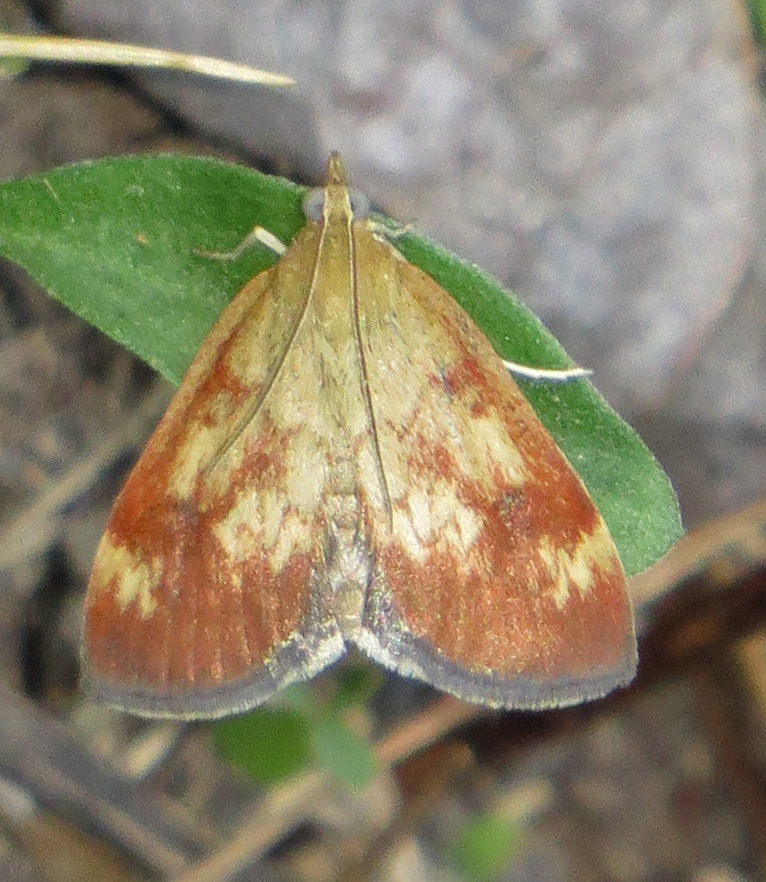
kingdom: Animalia
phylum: Arthropoda
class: Insecta
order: Lepidoptera
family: Crambidae
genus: Pyrausta
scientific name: Pyrausta homonymalis
